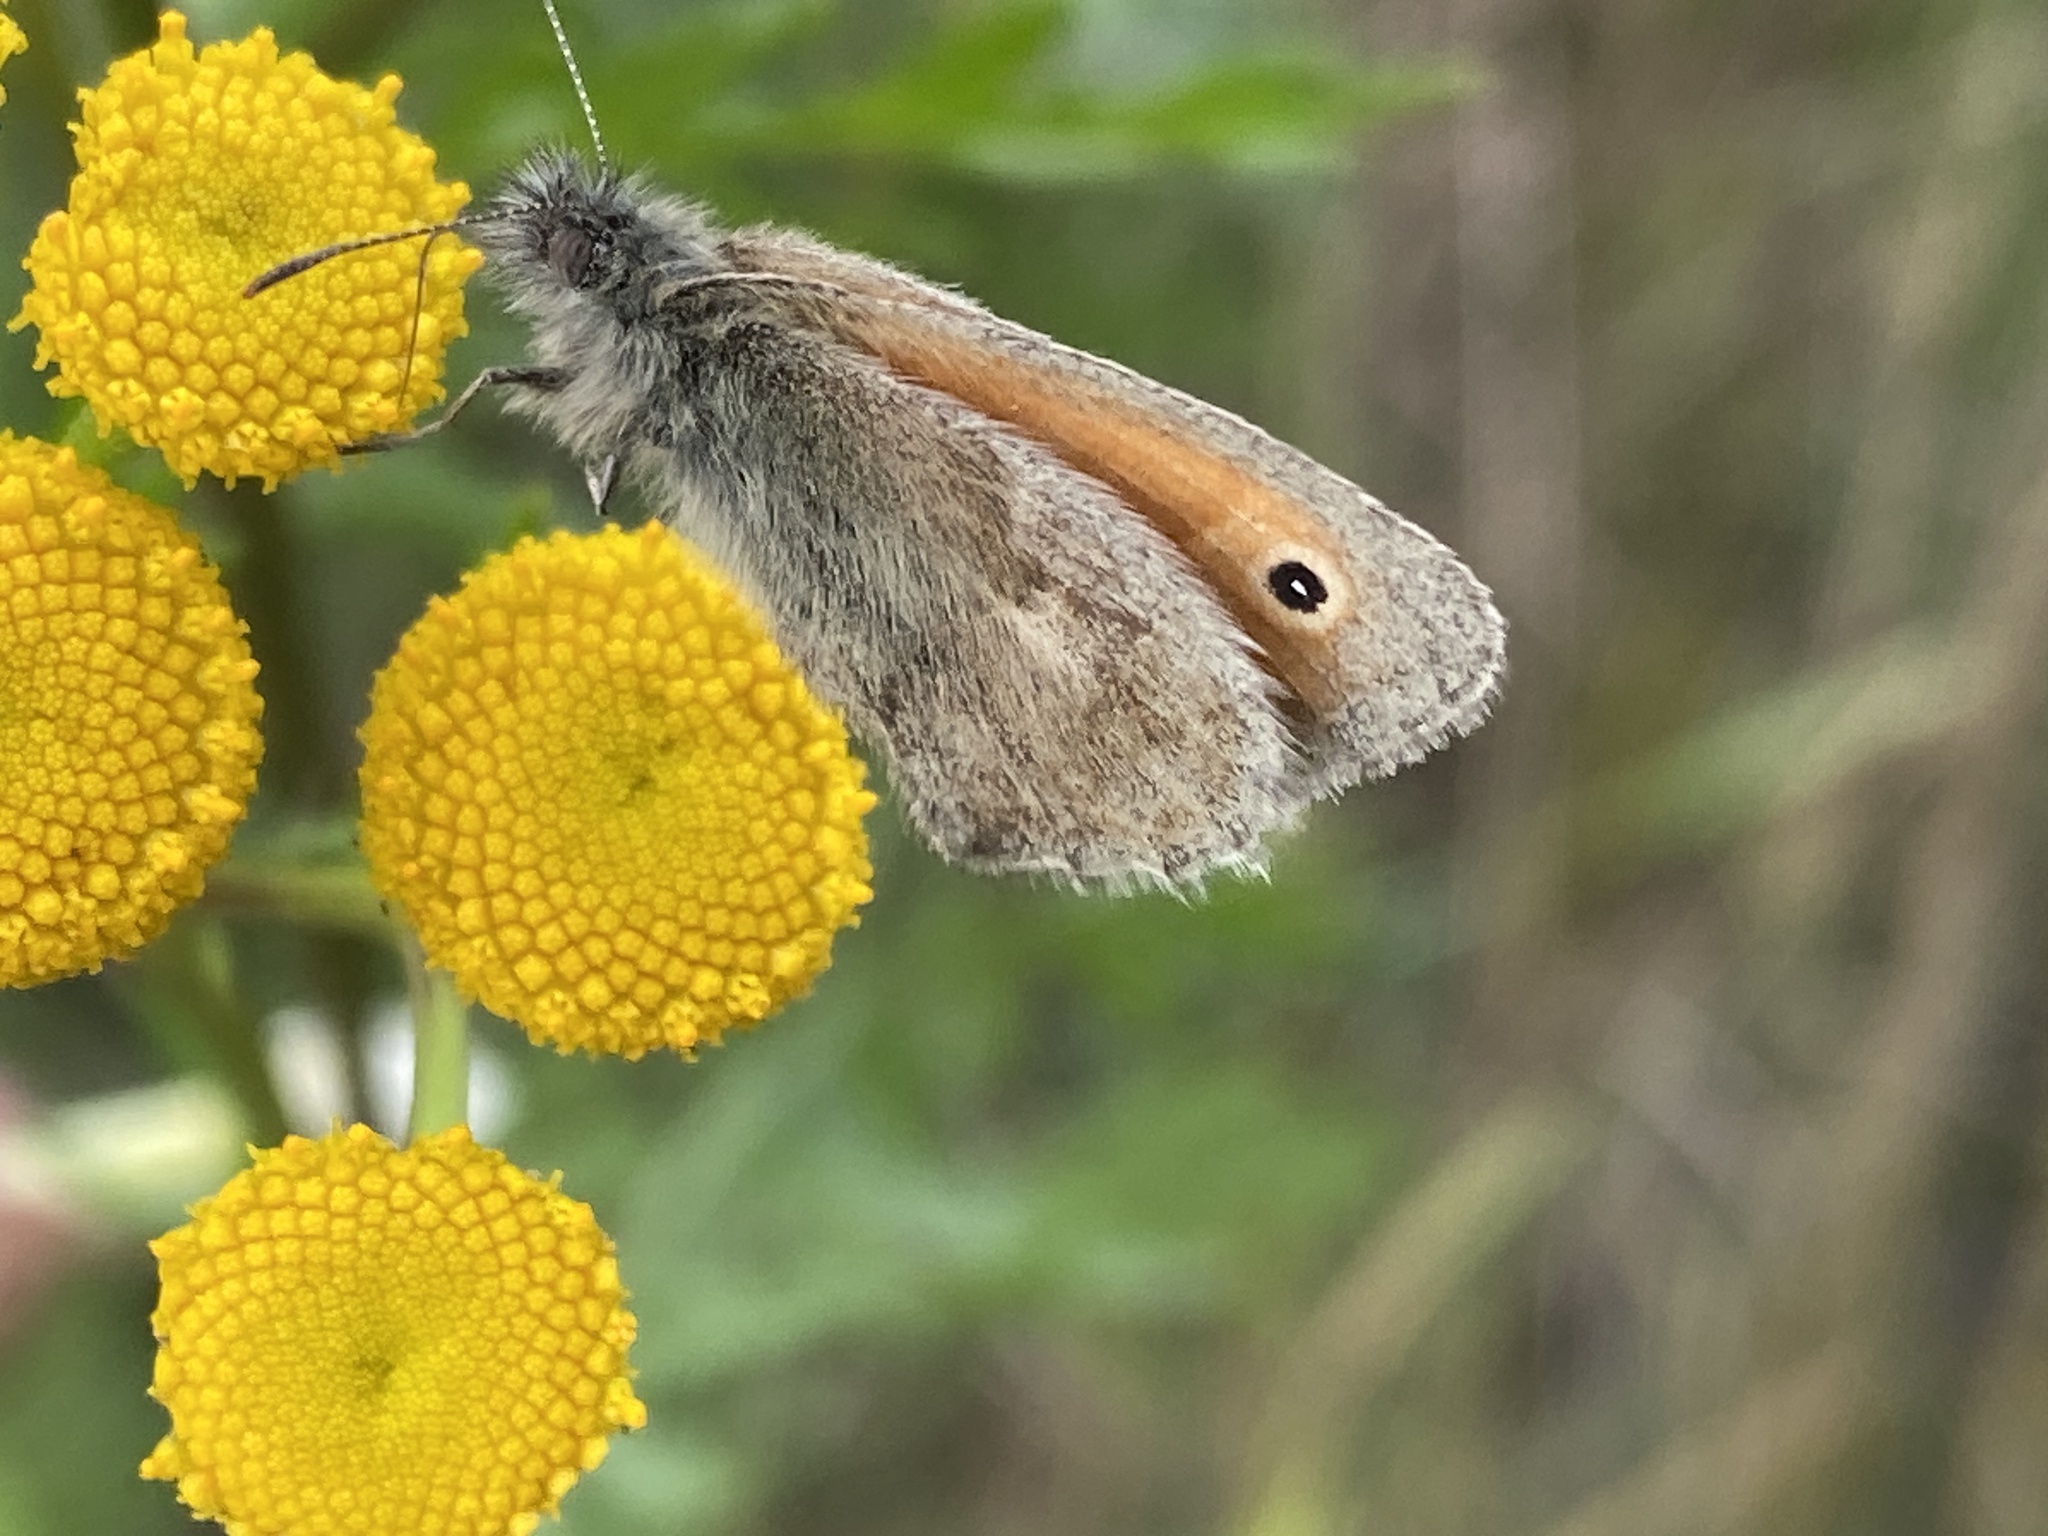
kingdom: Animalia
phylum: Arthropoda
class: Insecta
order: Lepidoptera
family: Nymphalidae
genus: Coenonympha
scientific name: Coenonympha pamphilus
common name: Small heath
